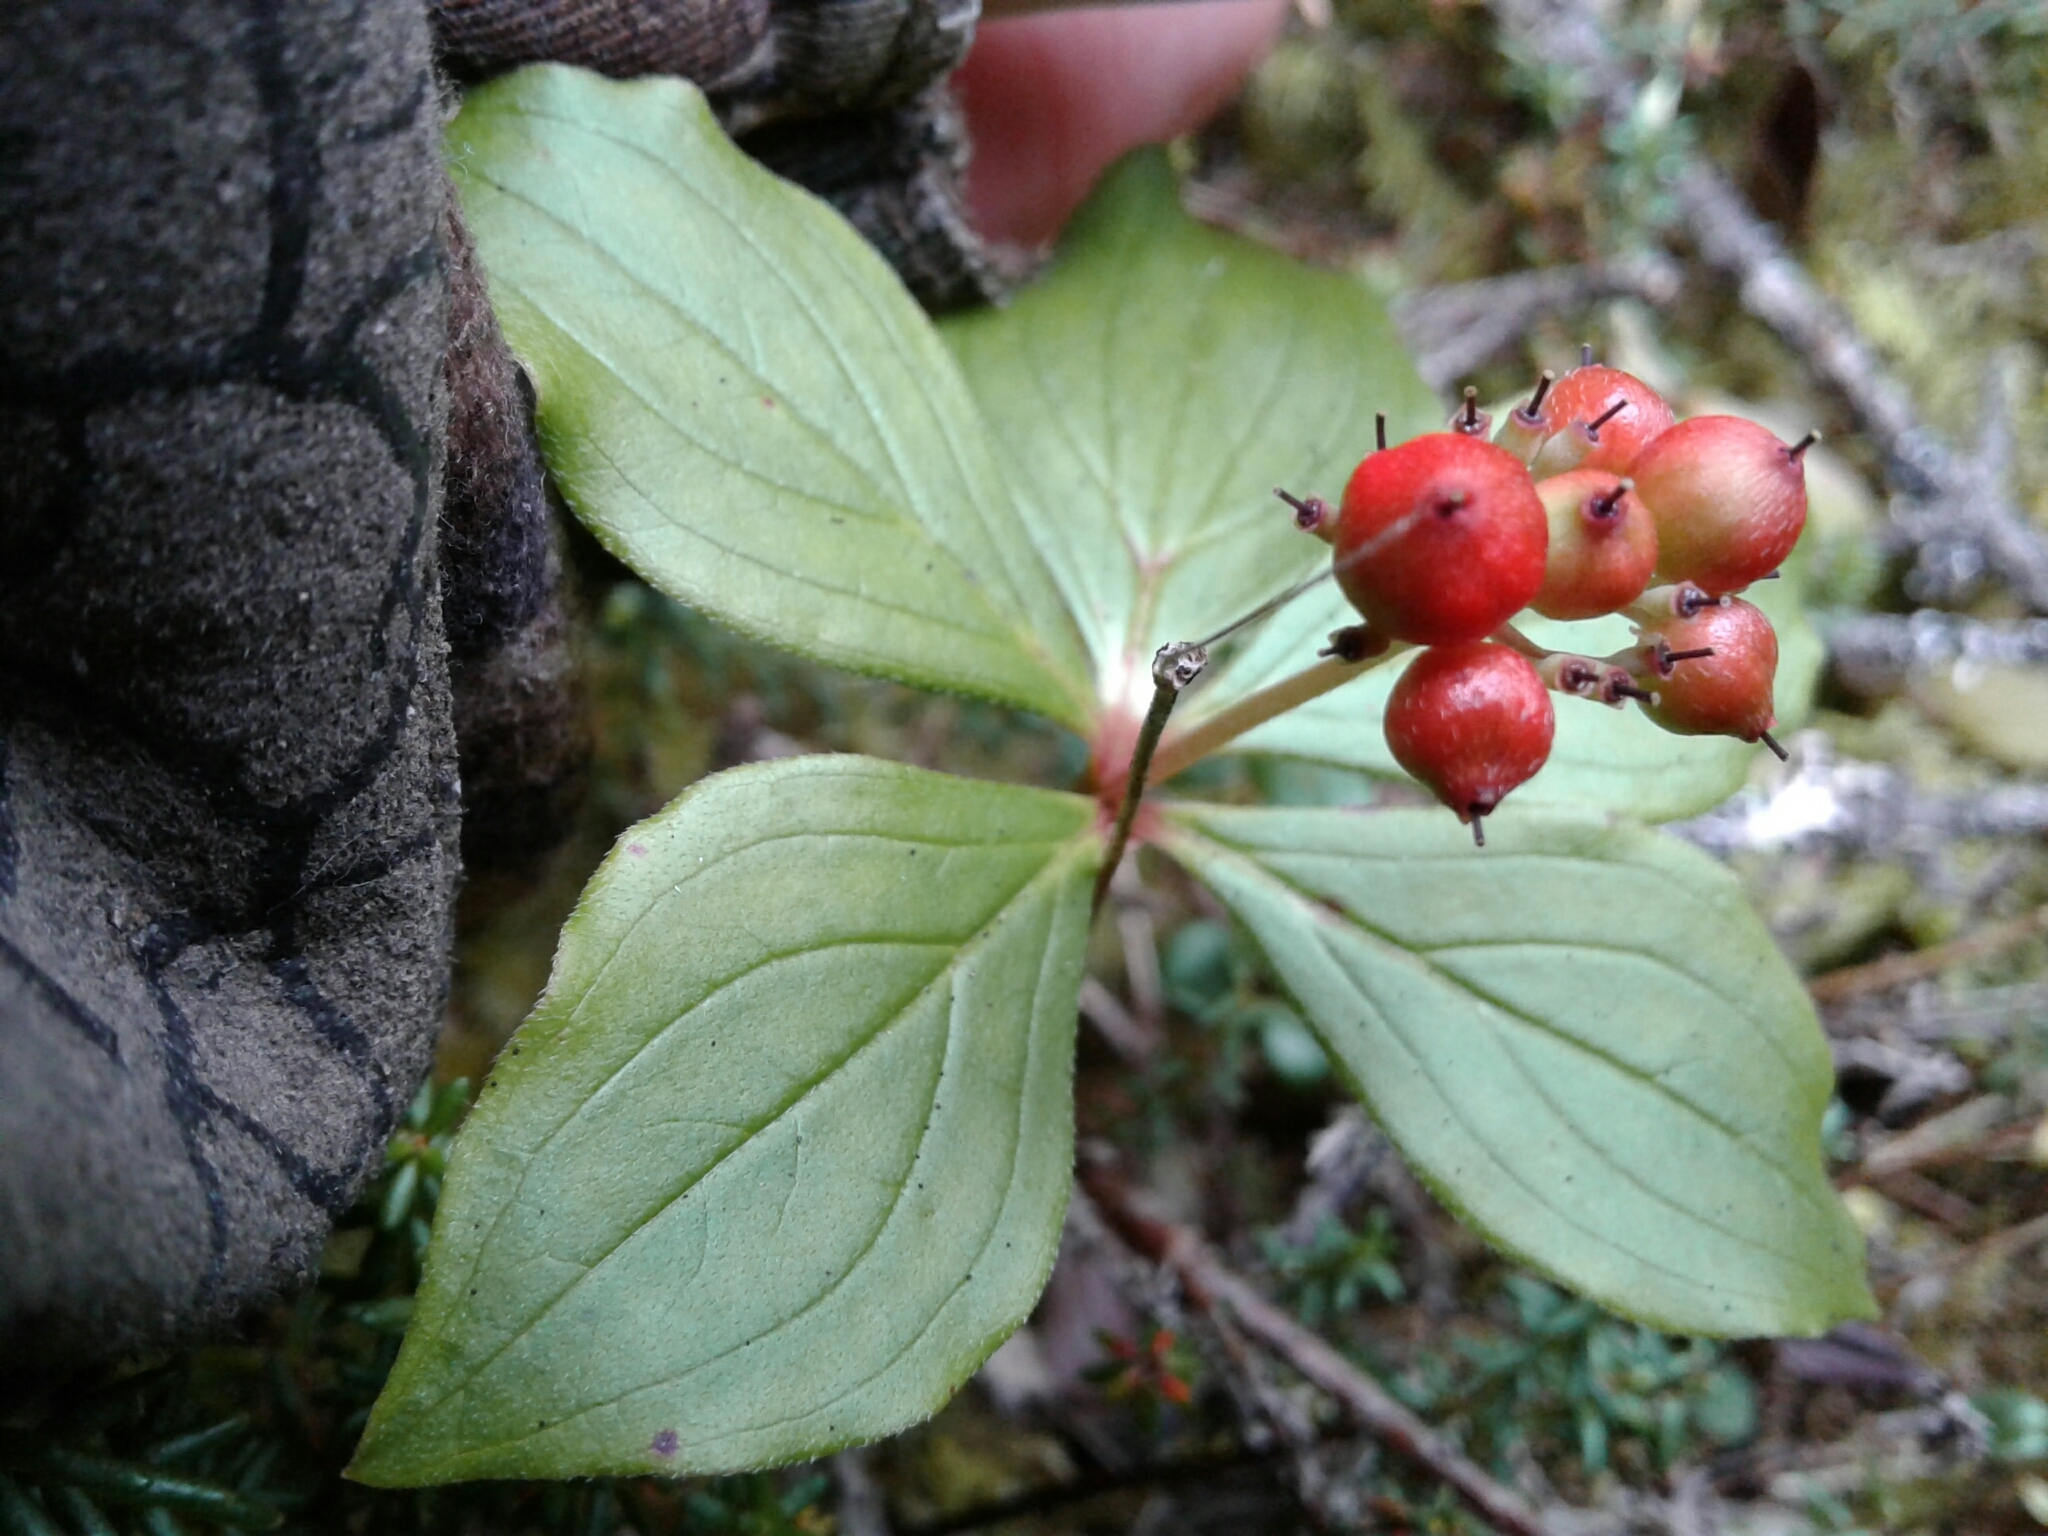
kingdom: Plantae
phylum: Tracheophyta
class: Magnoliopsida
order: Cornales
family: Cornaceae
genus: Cornus
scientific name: Cornus canadensis
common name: Creeping dogwood
